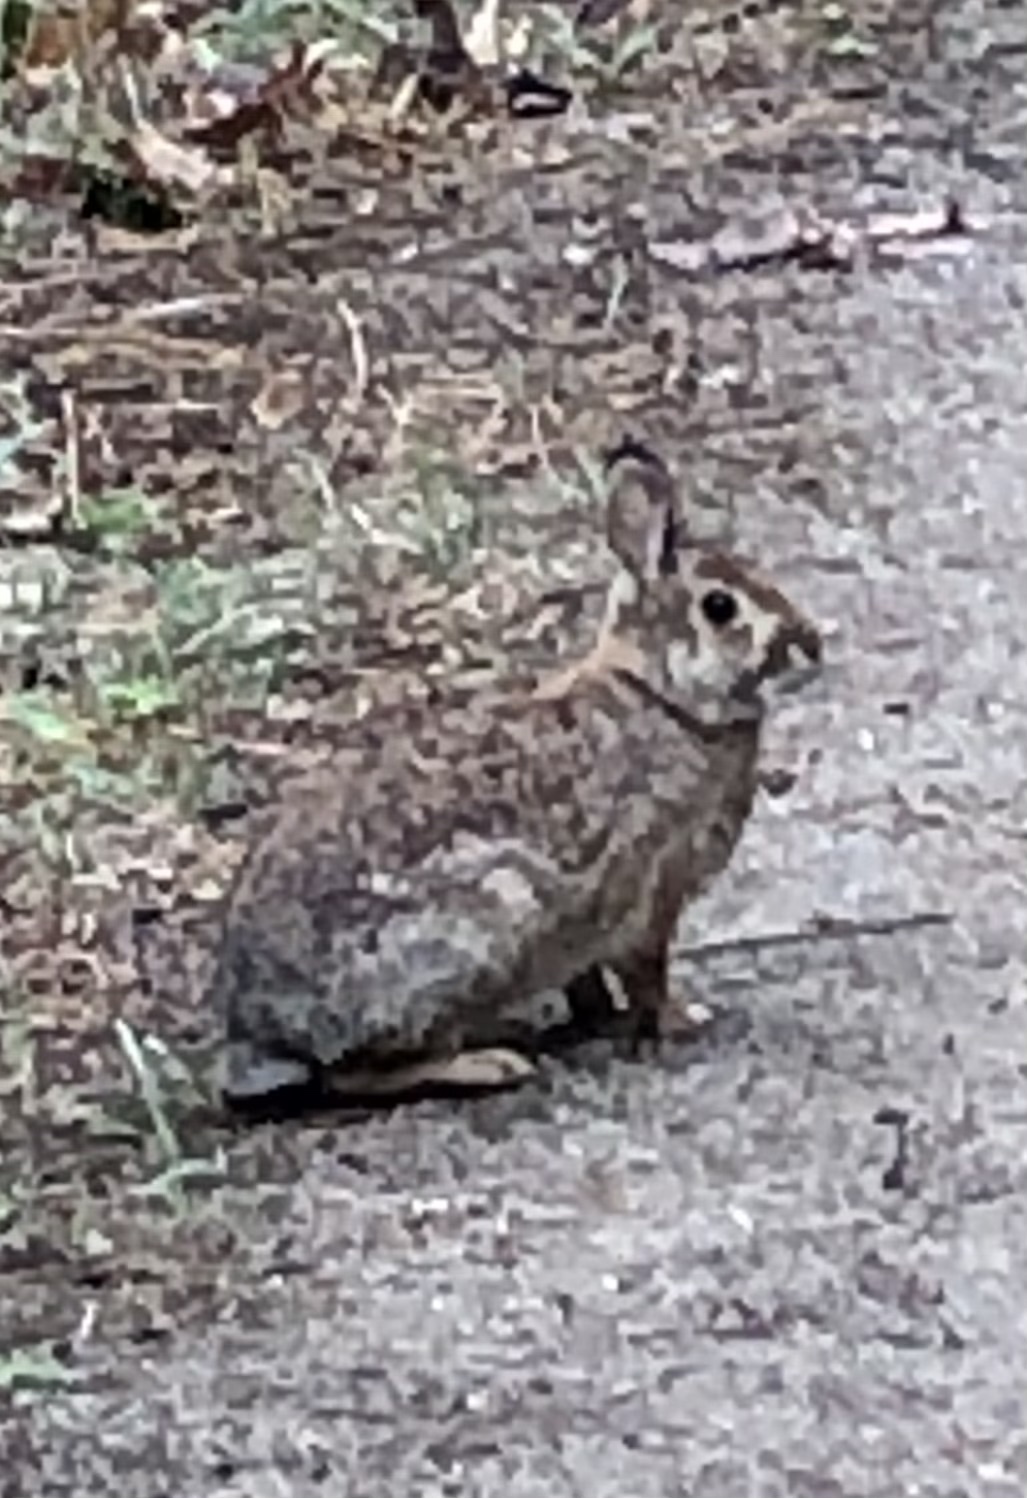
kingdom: Animalia
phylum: Chordata
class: Mammalia
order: Lagomorpha
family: Leporidae
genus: Sylvilagus
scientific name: Sylvilagus floridanus
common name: Eastern cottontail
